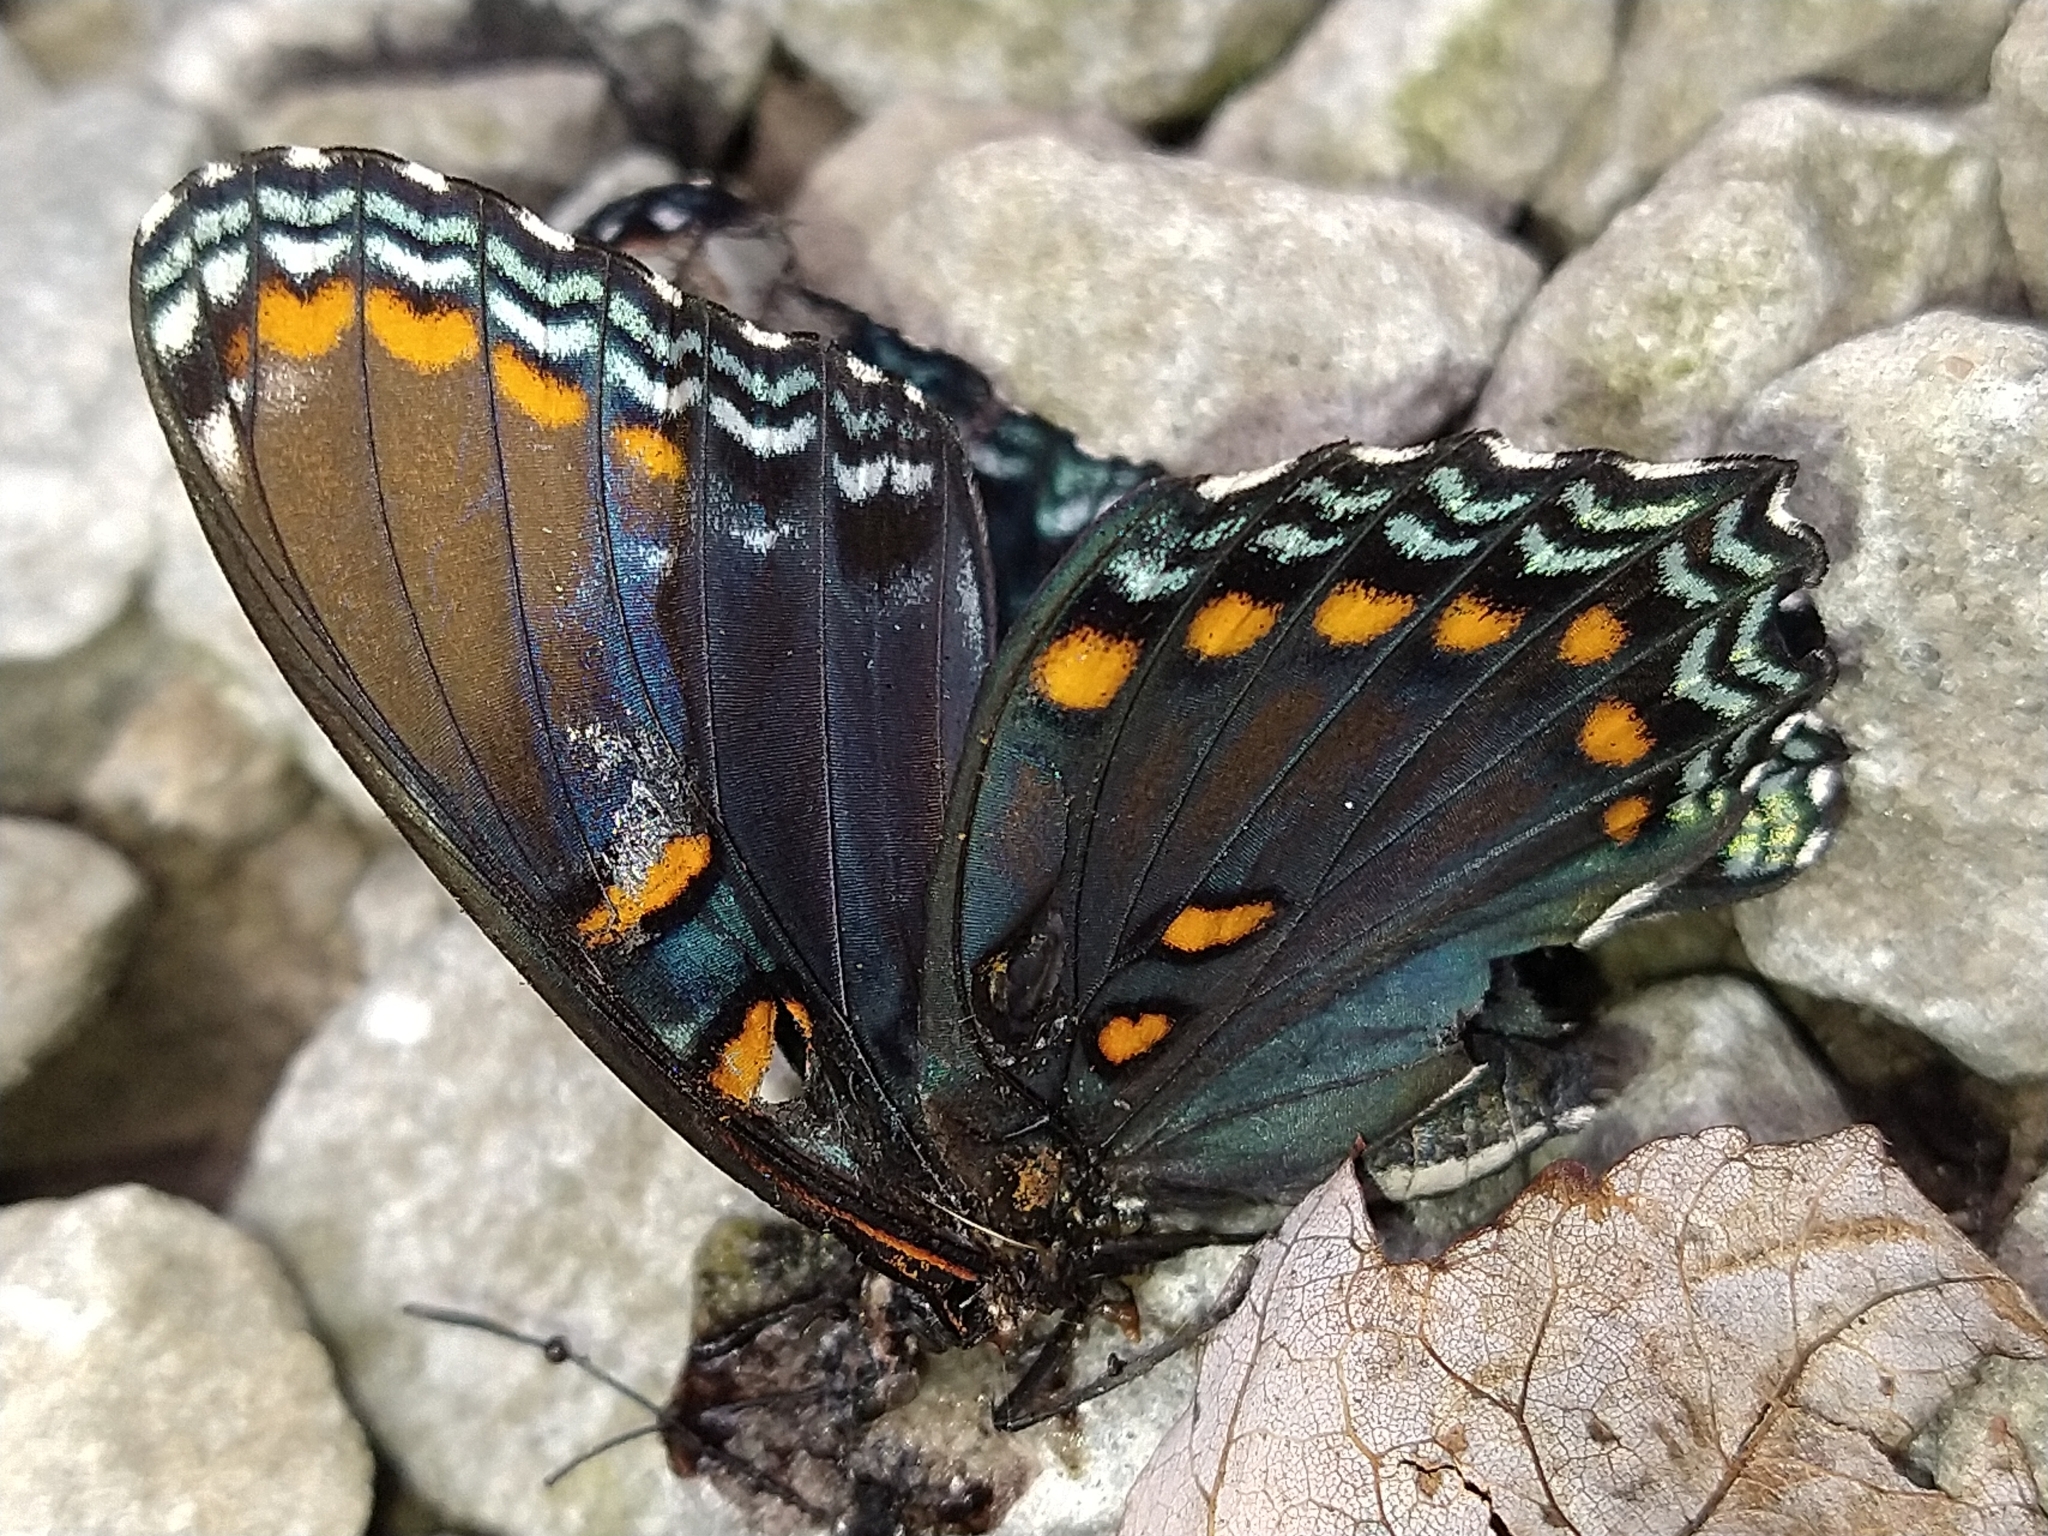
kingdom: Animalia
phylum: Arthropoda
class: Insecta
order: Lepidoptera
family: Nymphalidae
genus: Limenitis
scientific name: Limenitis arthemis
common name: Red-spotted admiral
